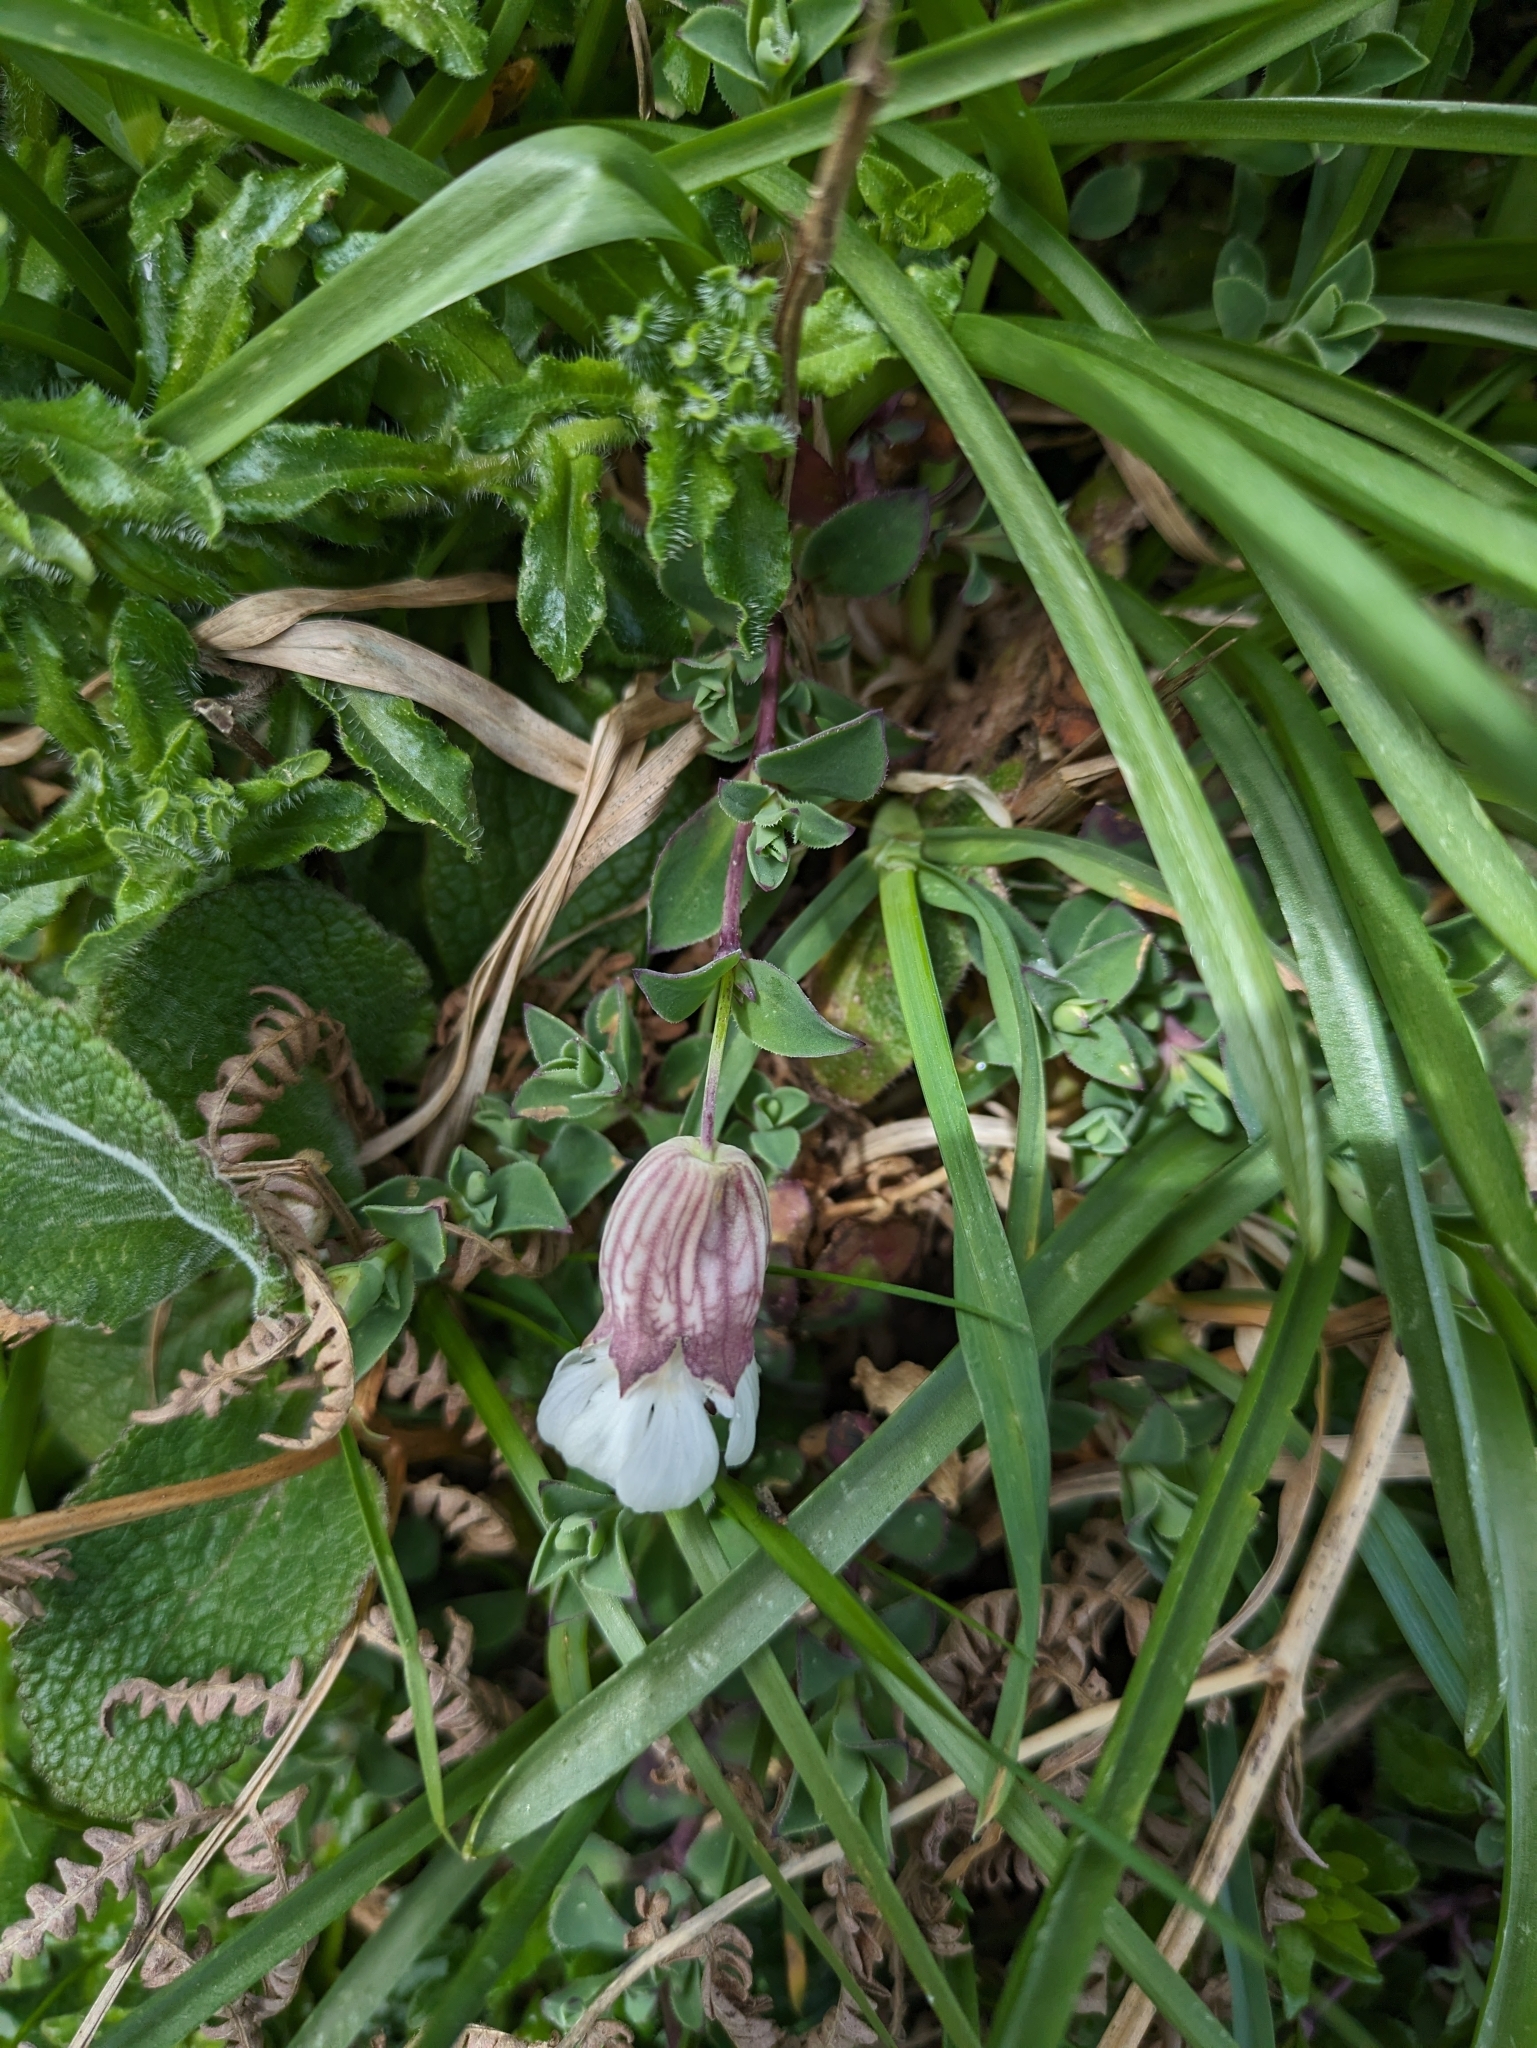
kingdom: Plantae
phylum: Tracheophyta
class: Magnoliopsida
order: Caryophyllales
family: Caryophyllaceae
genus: Silene
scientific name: Silene uniflora
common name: Sea campion
